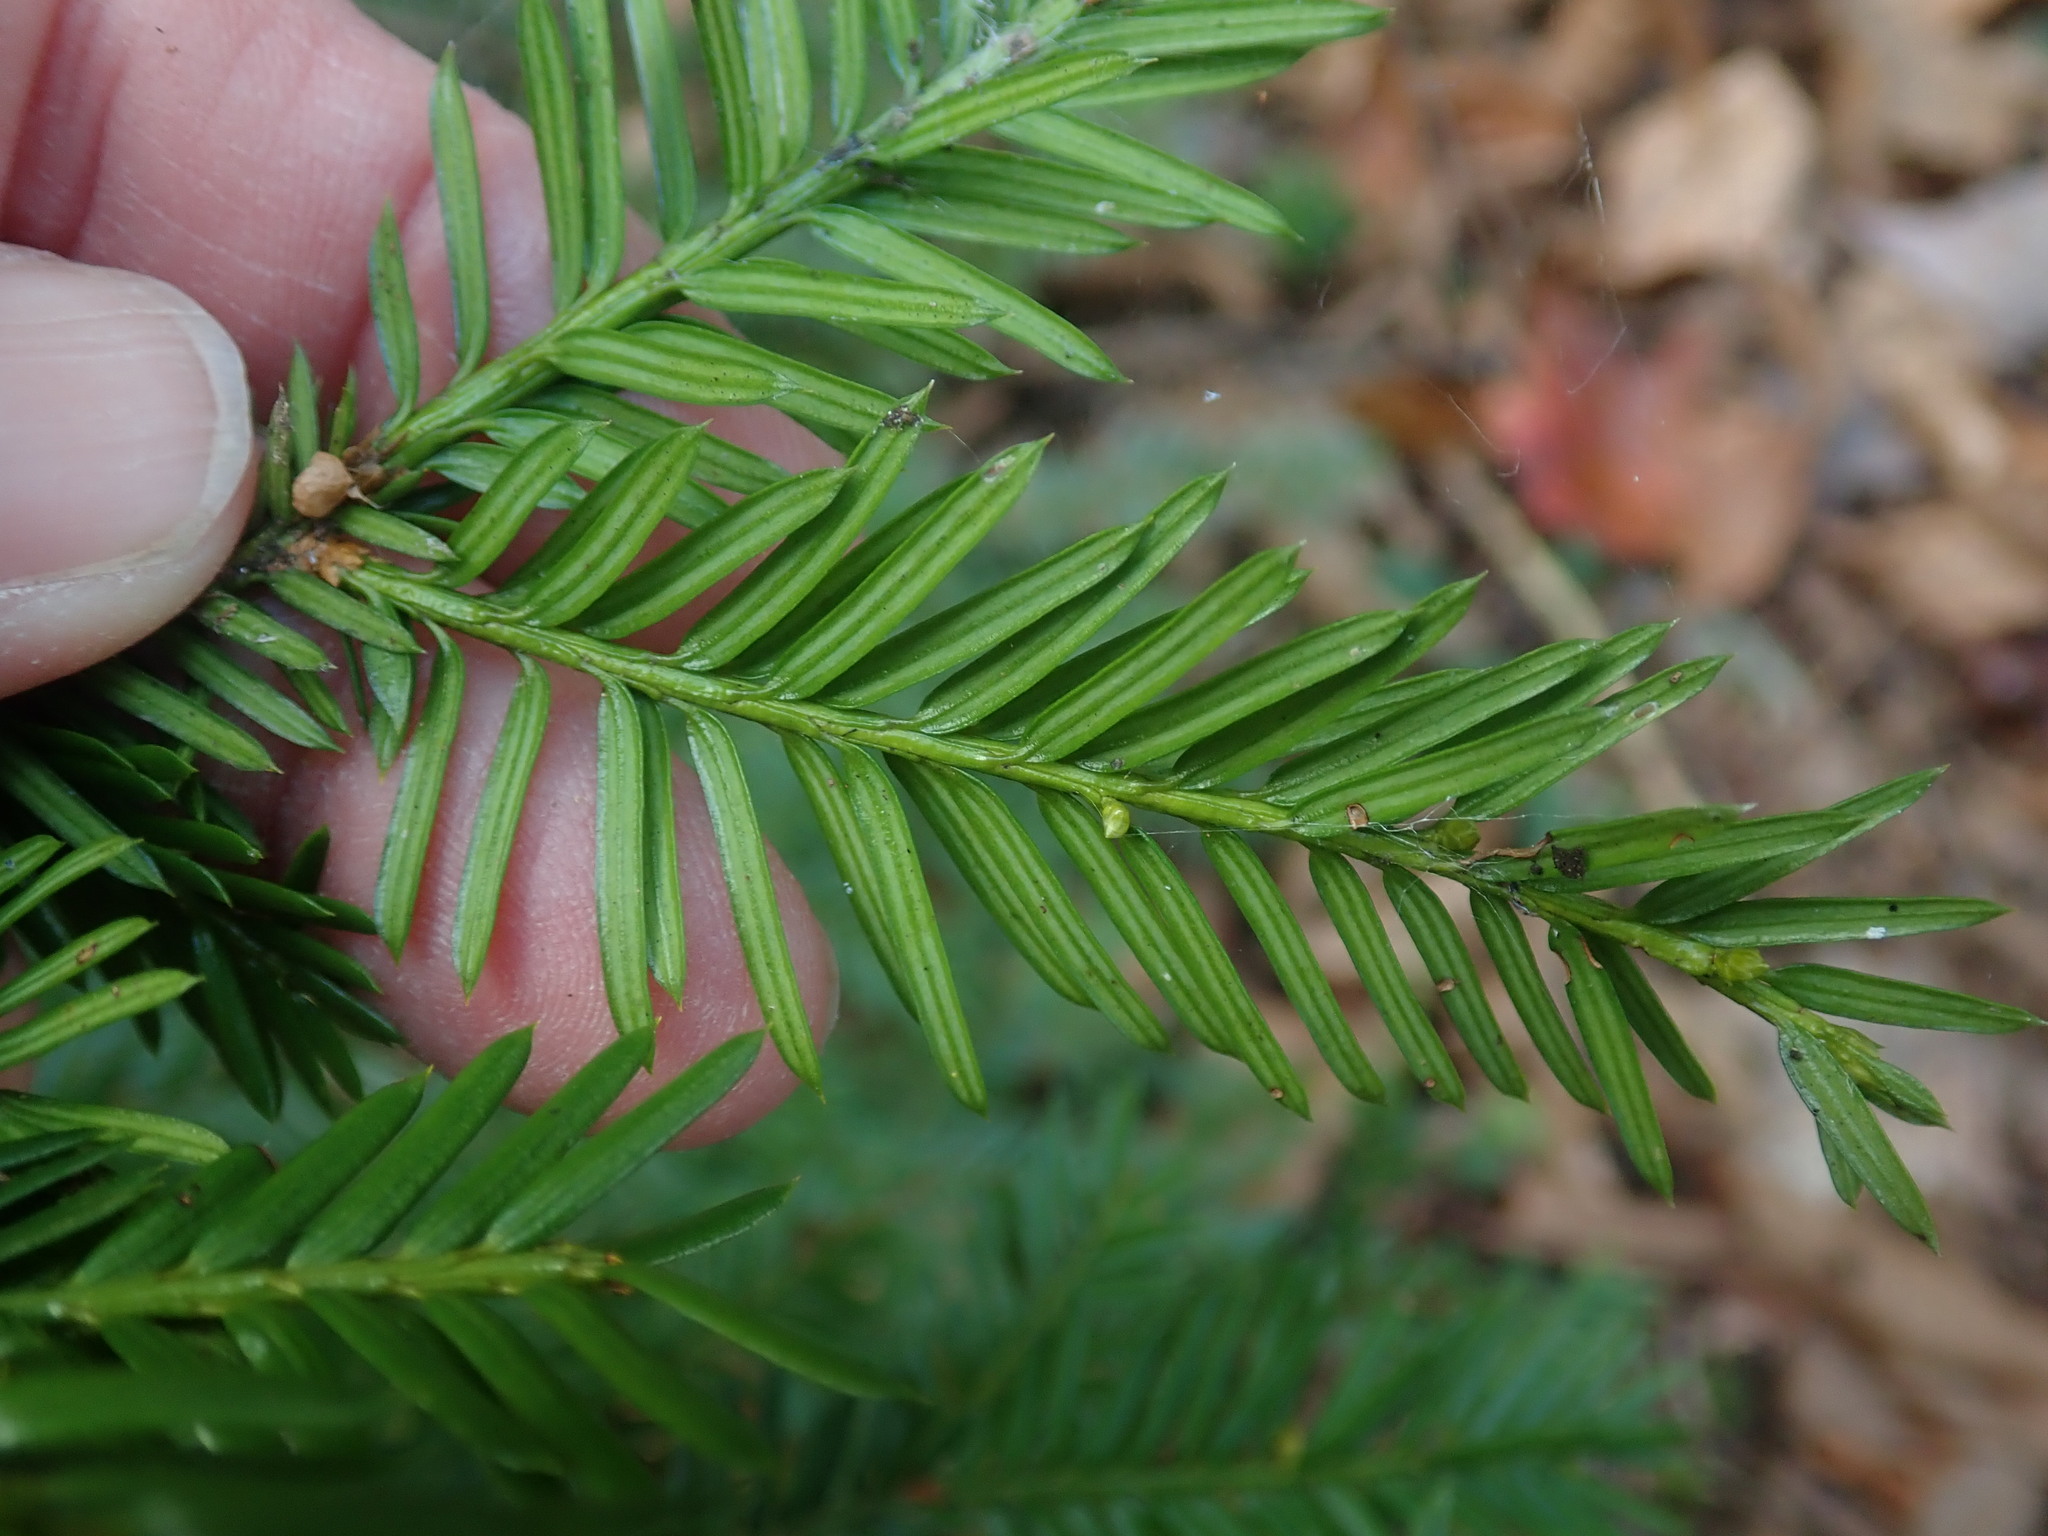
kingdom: Plantae
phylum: Tracheophyta
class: Pinopsida
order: Pinales
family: Taxaceae
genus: Taxus
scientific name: Taxus canadensis
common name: American yew
